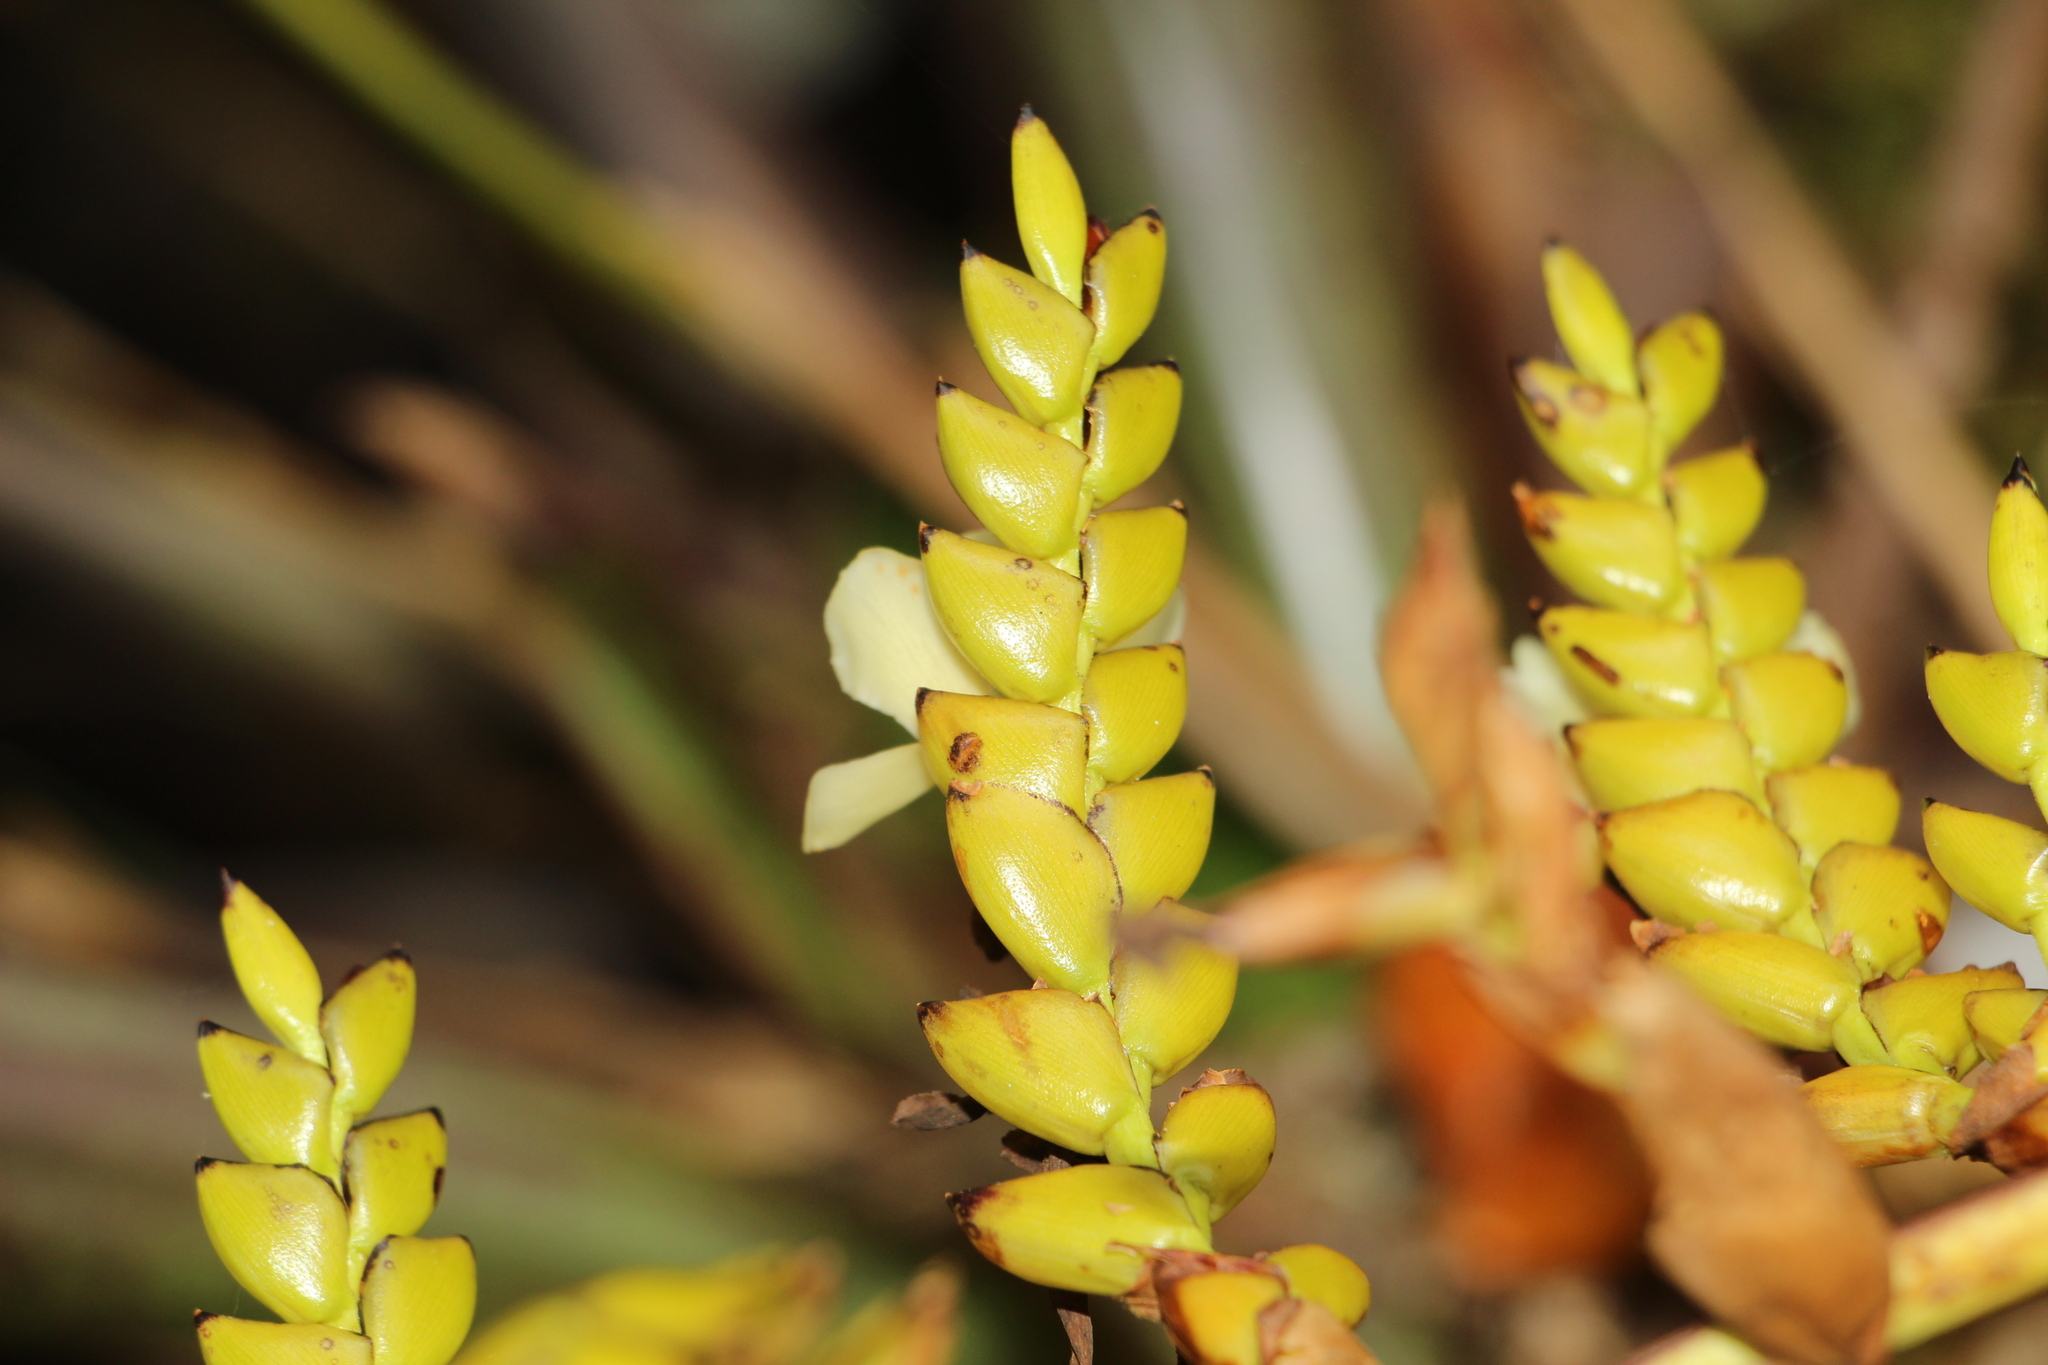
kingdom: Plantae
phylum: Tracheophyta
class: Liliopsida
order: Poales
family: Bromeliaceae
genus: Racinaea
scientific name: Racinaea riocreuxii
